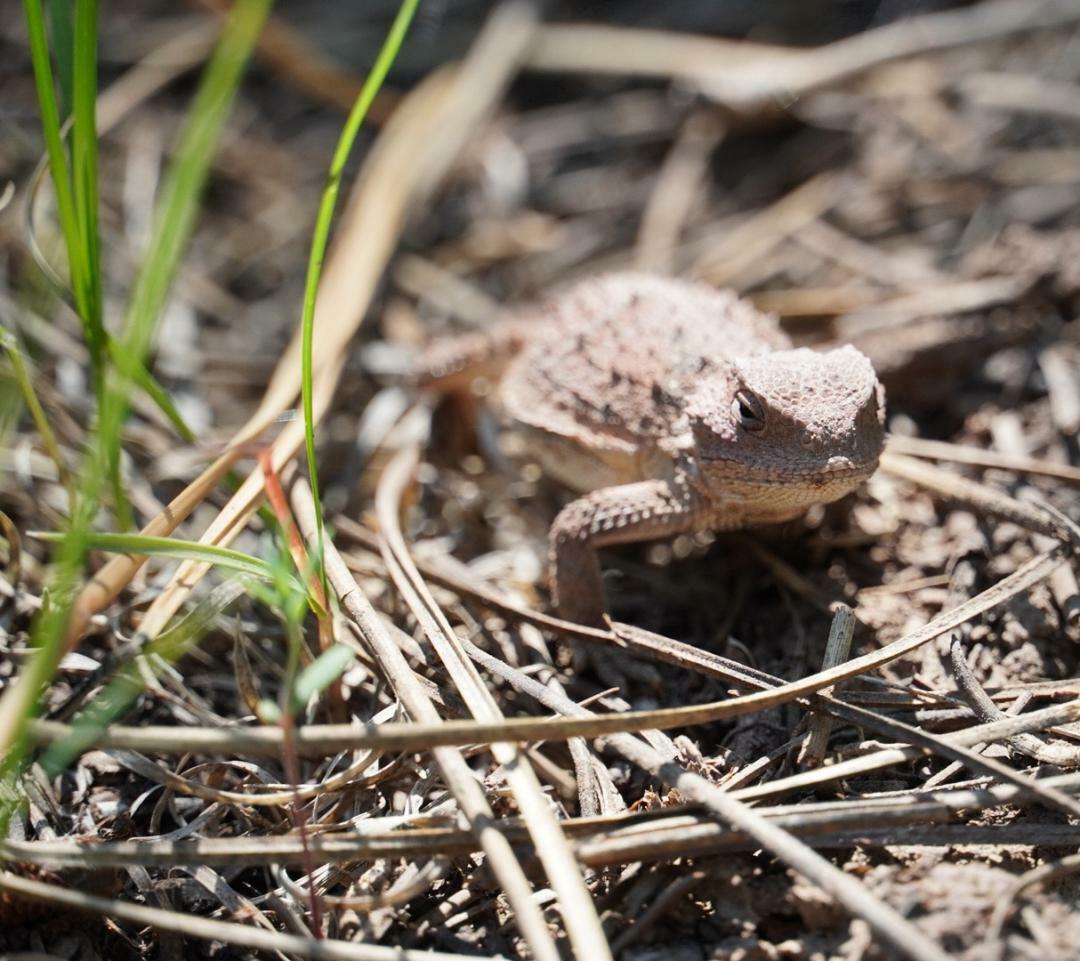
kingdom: Animalia
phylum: Chordata
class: Squamata
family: Phrynosomatidae
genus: Phrynosoma
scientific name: Phrynosoma hernandesi
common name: Greater short-horned lizard
